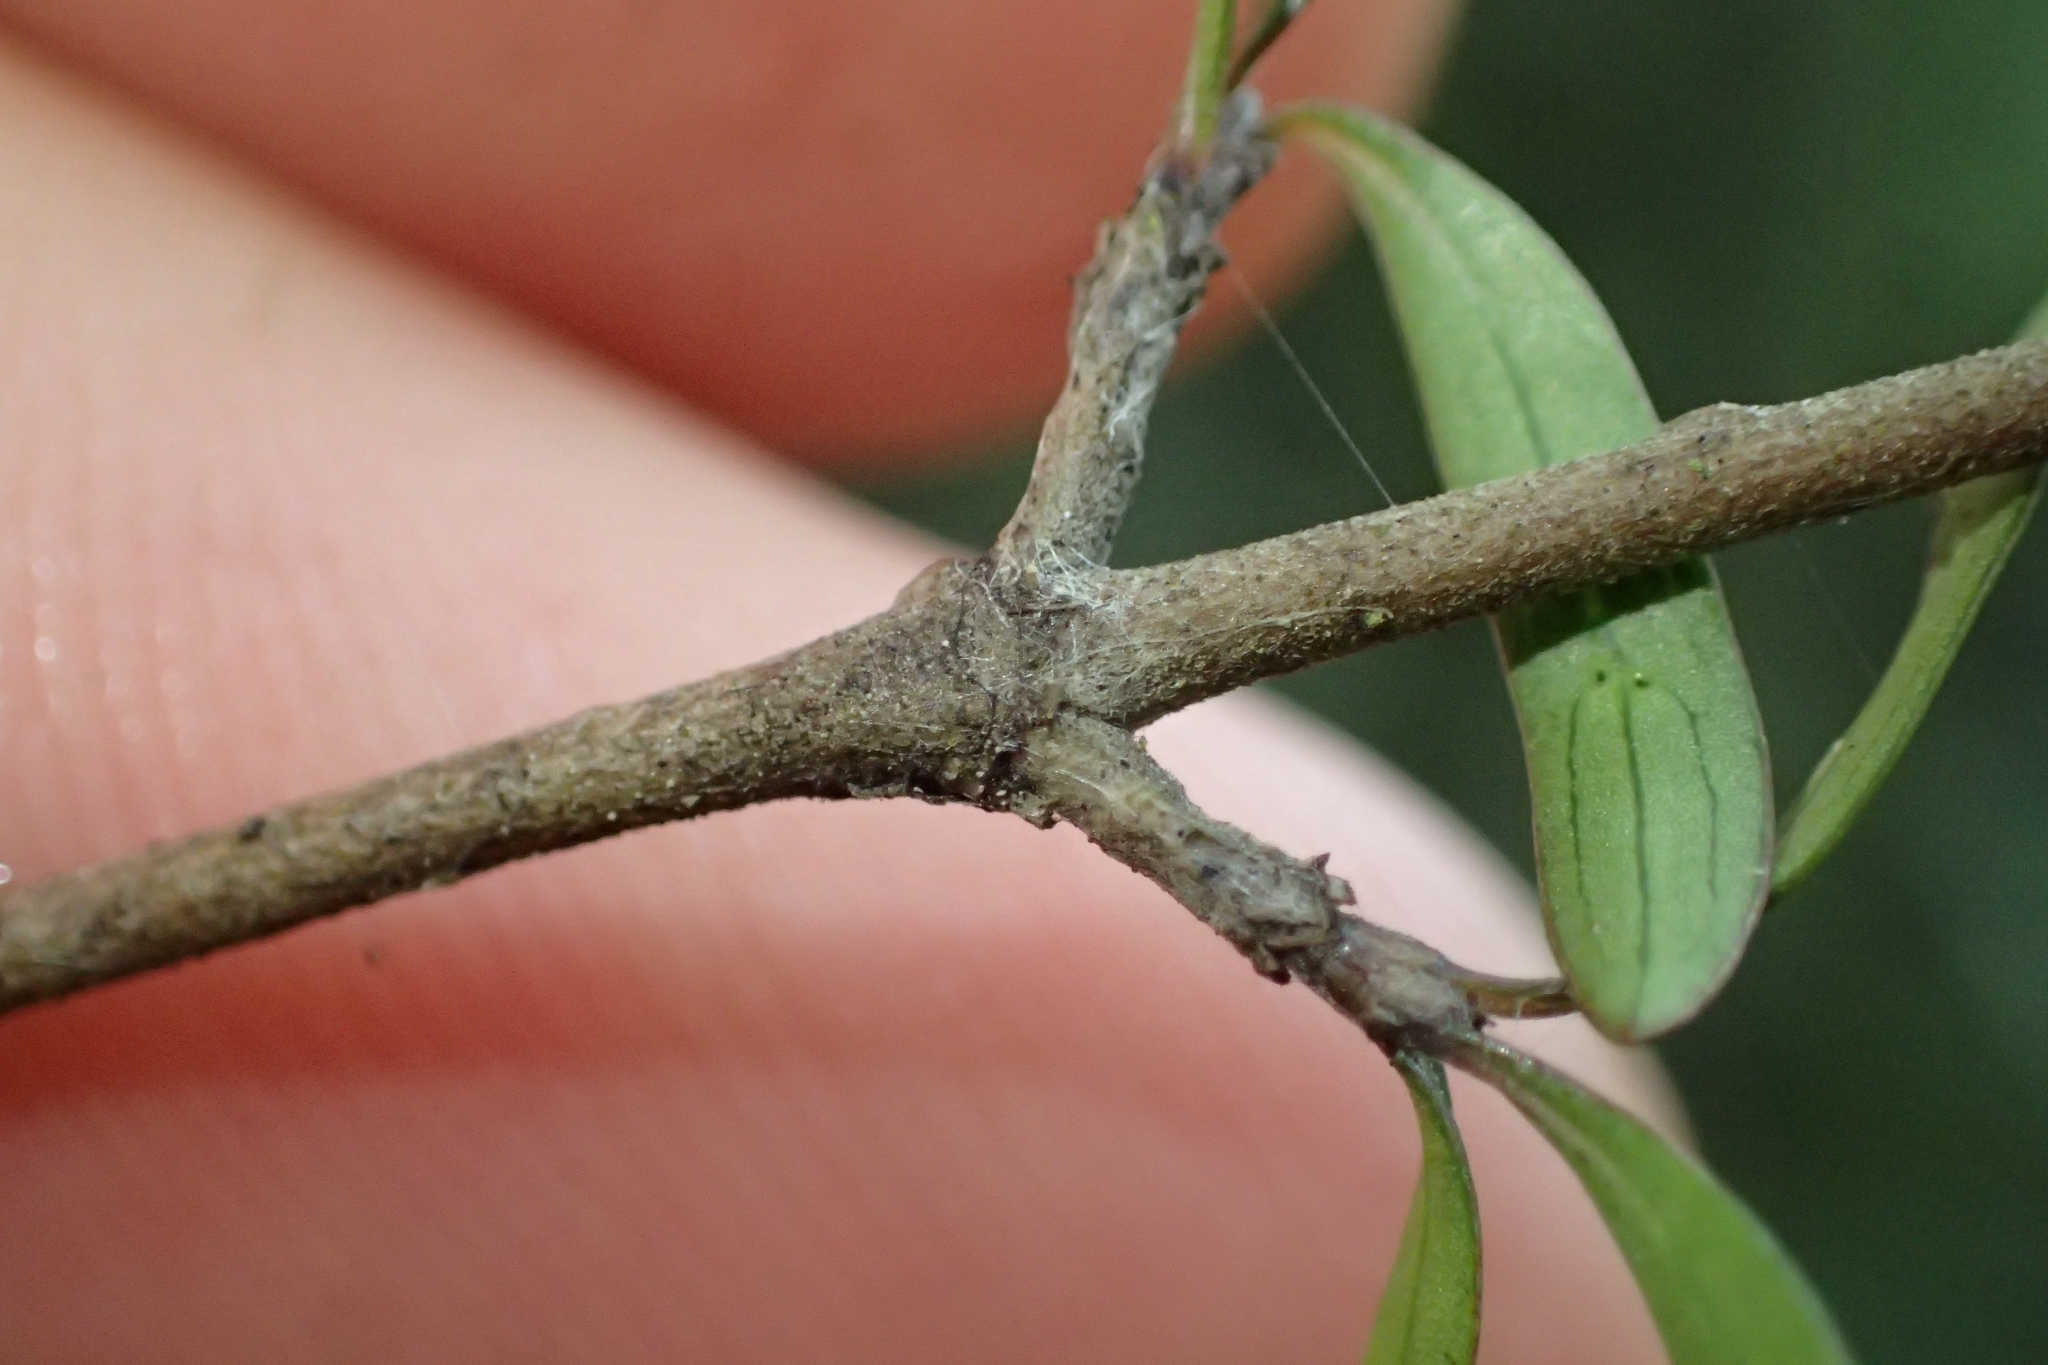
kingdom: Plantae
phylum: Tracheophyta
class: Magnoliopsida
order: Gentianales
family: Rubiaceae
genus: Coprosma
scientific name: Coprosma propinqua
